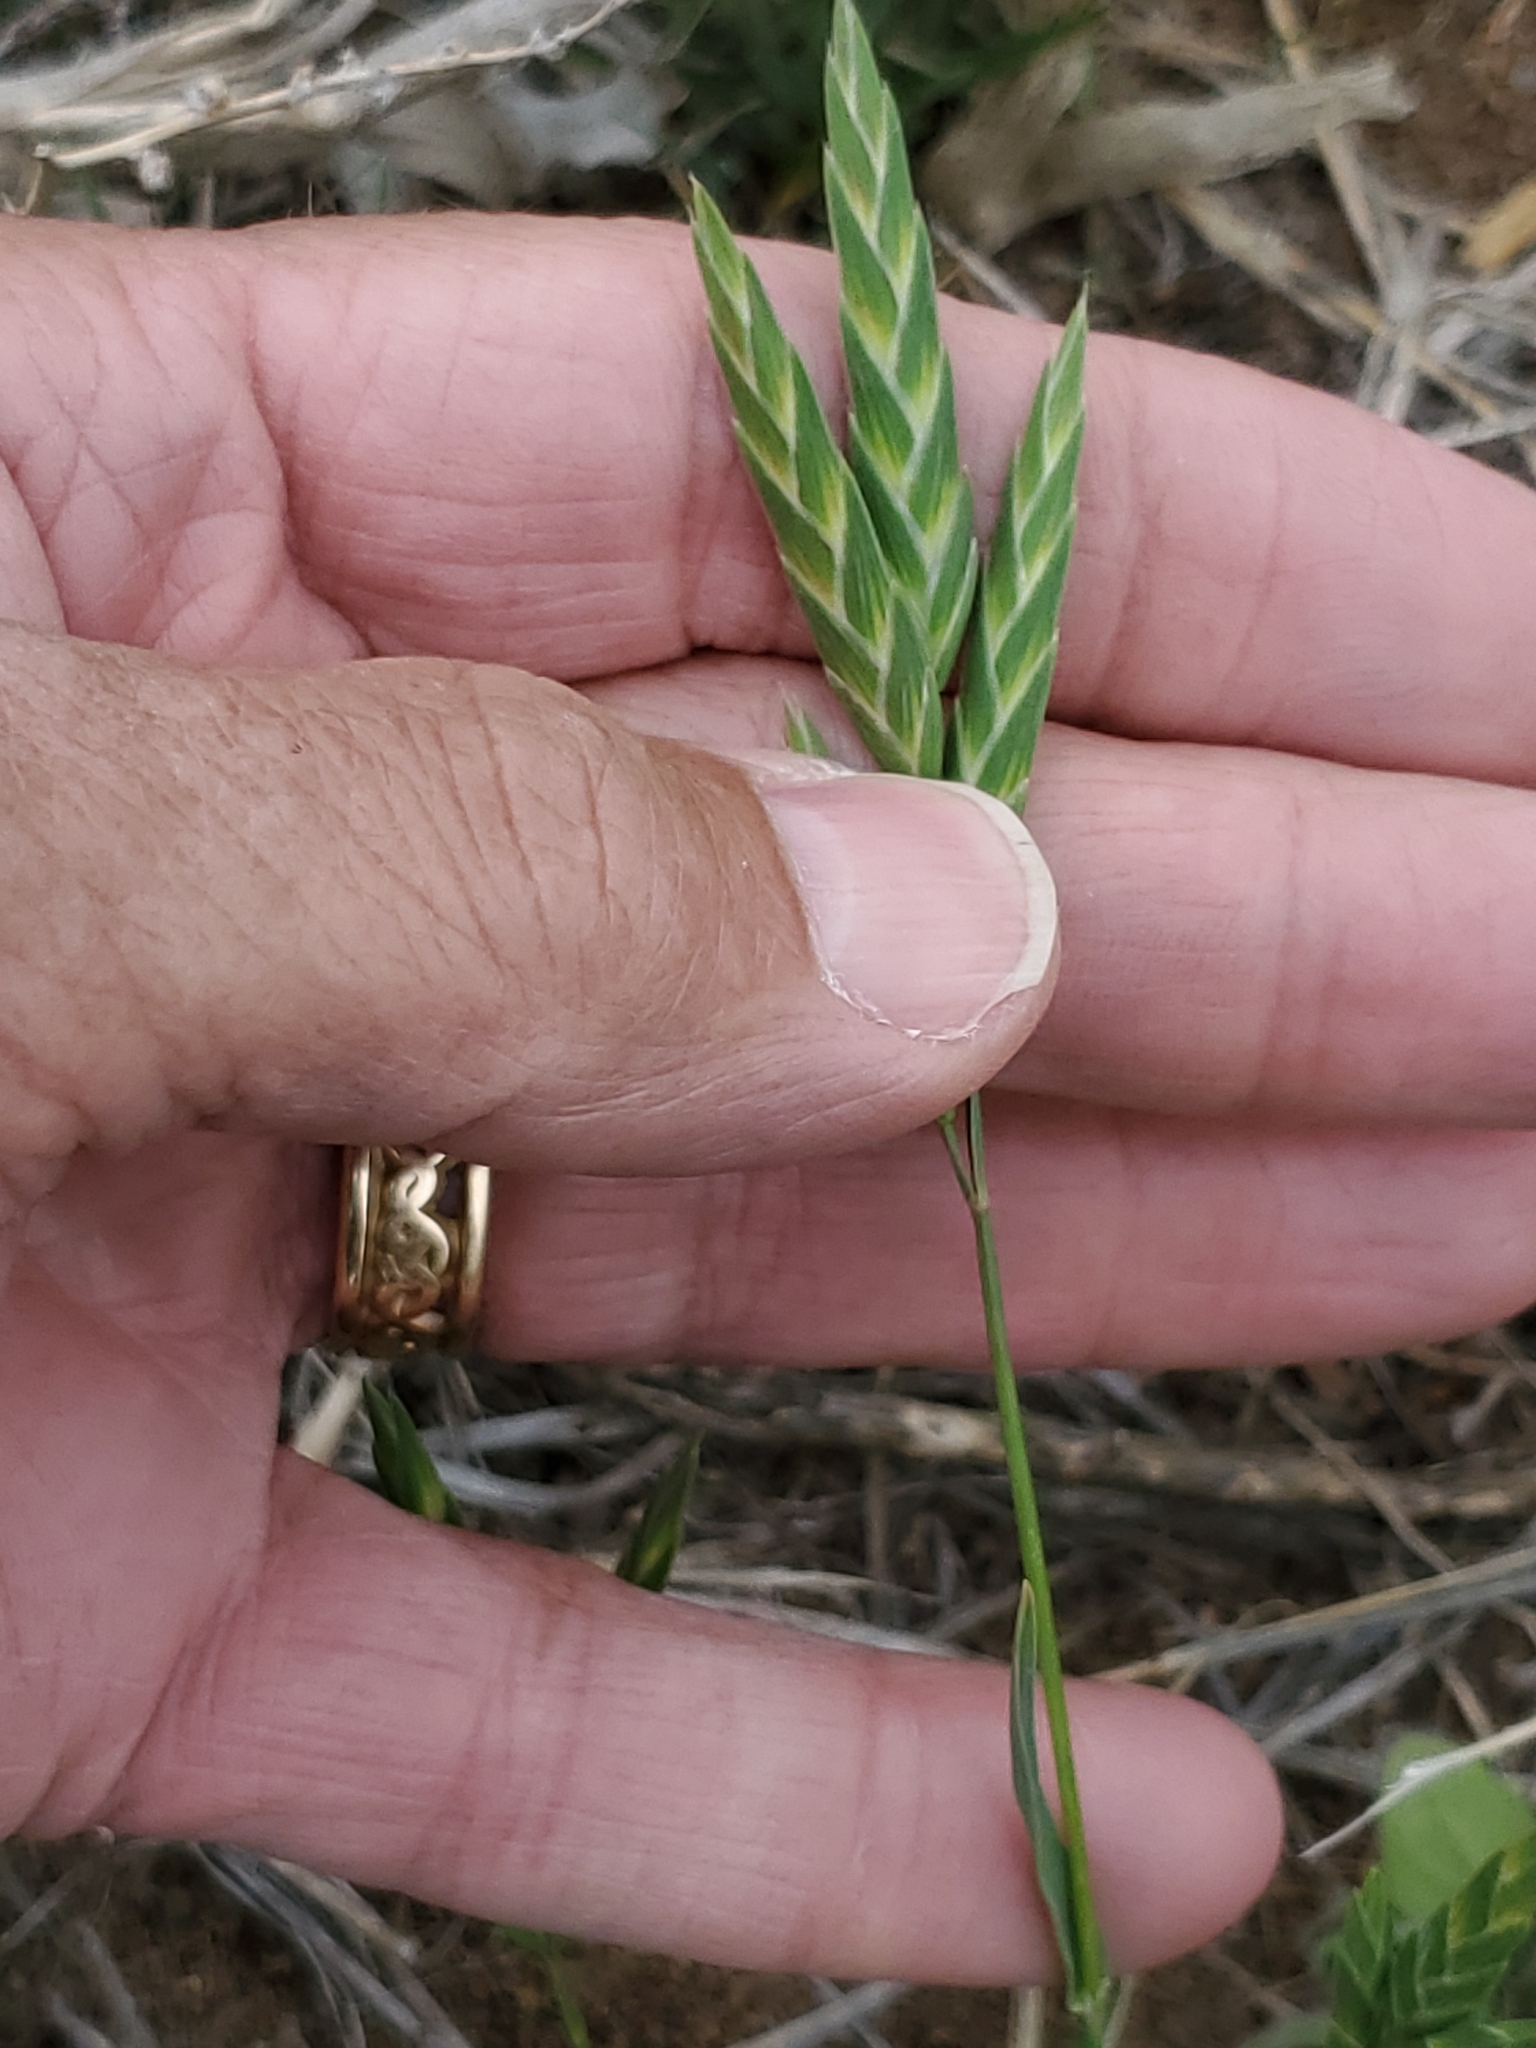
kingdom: Plantae
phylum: Tracheophyta
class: Liliopsida
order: Poales
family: Poaceae
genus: Bromus
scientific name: Bromus catharticus
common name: Rescuegrass
